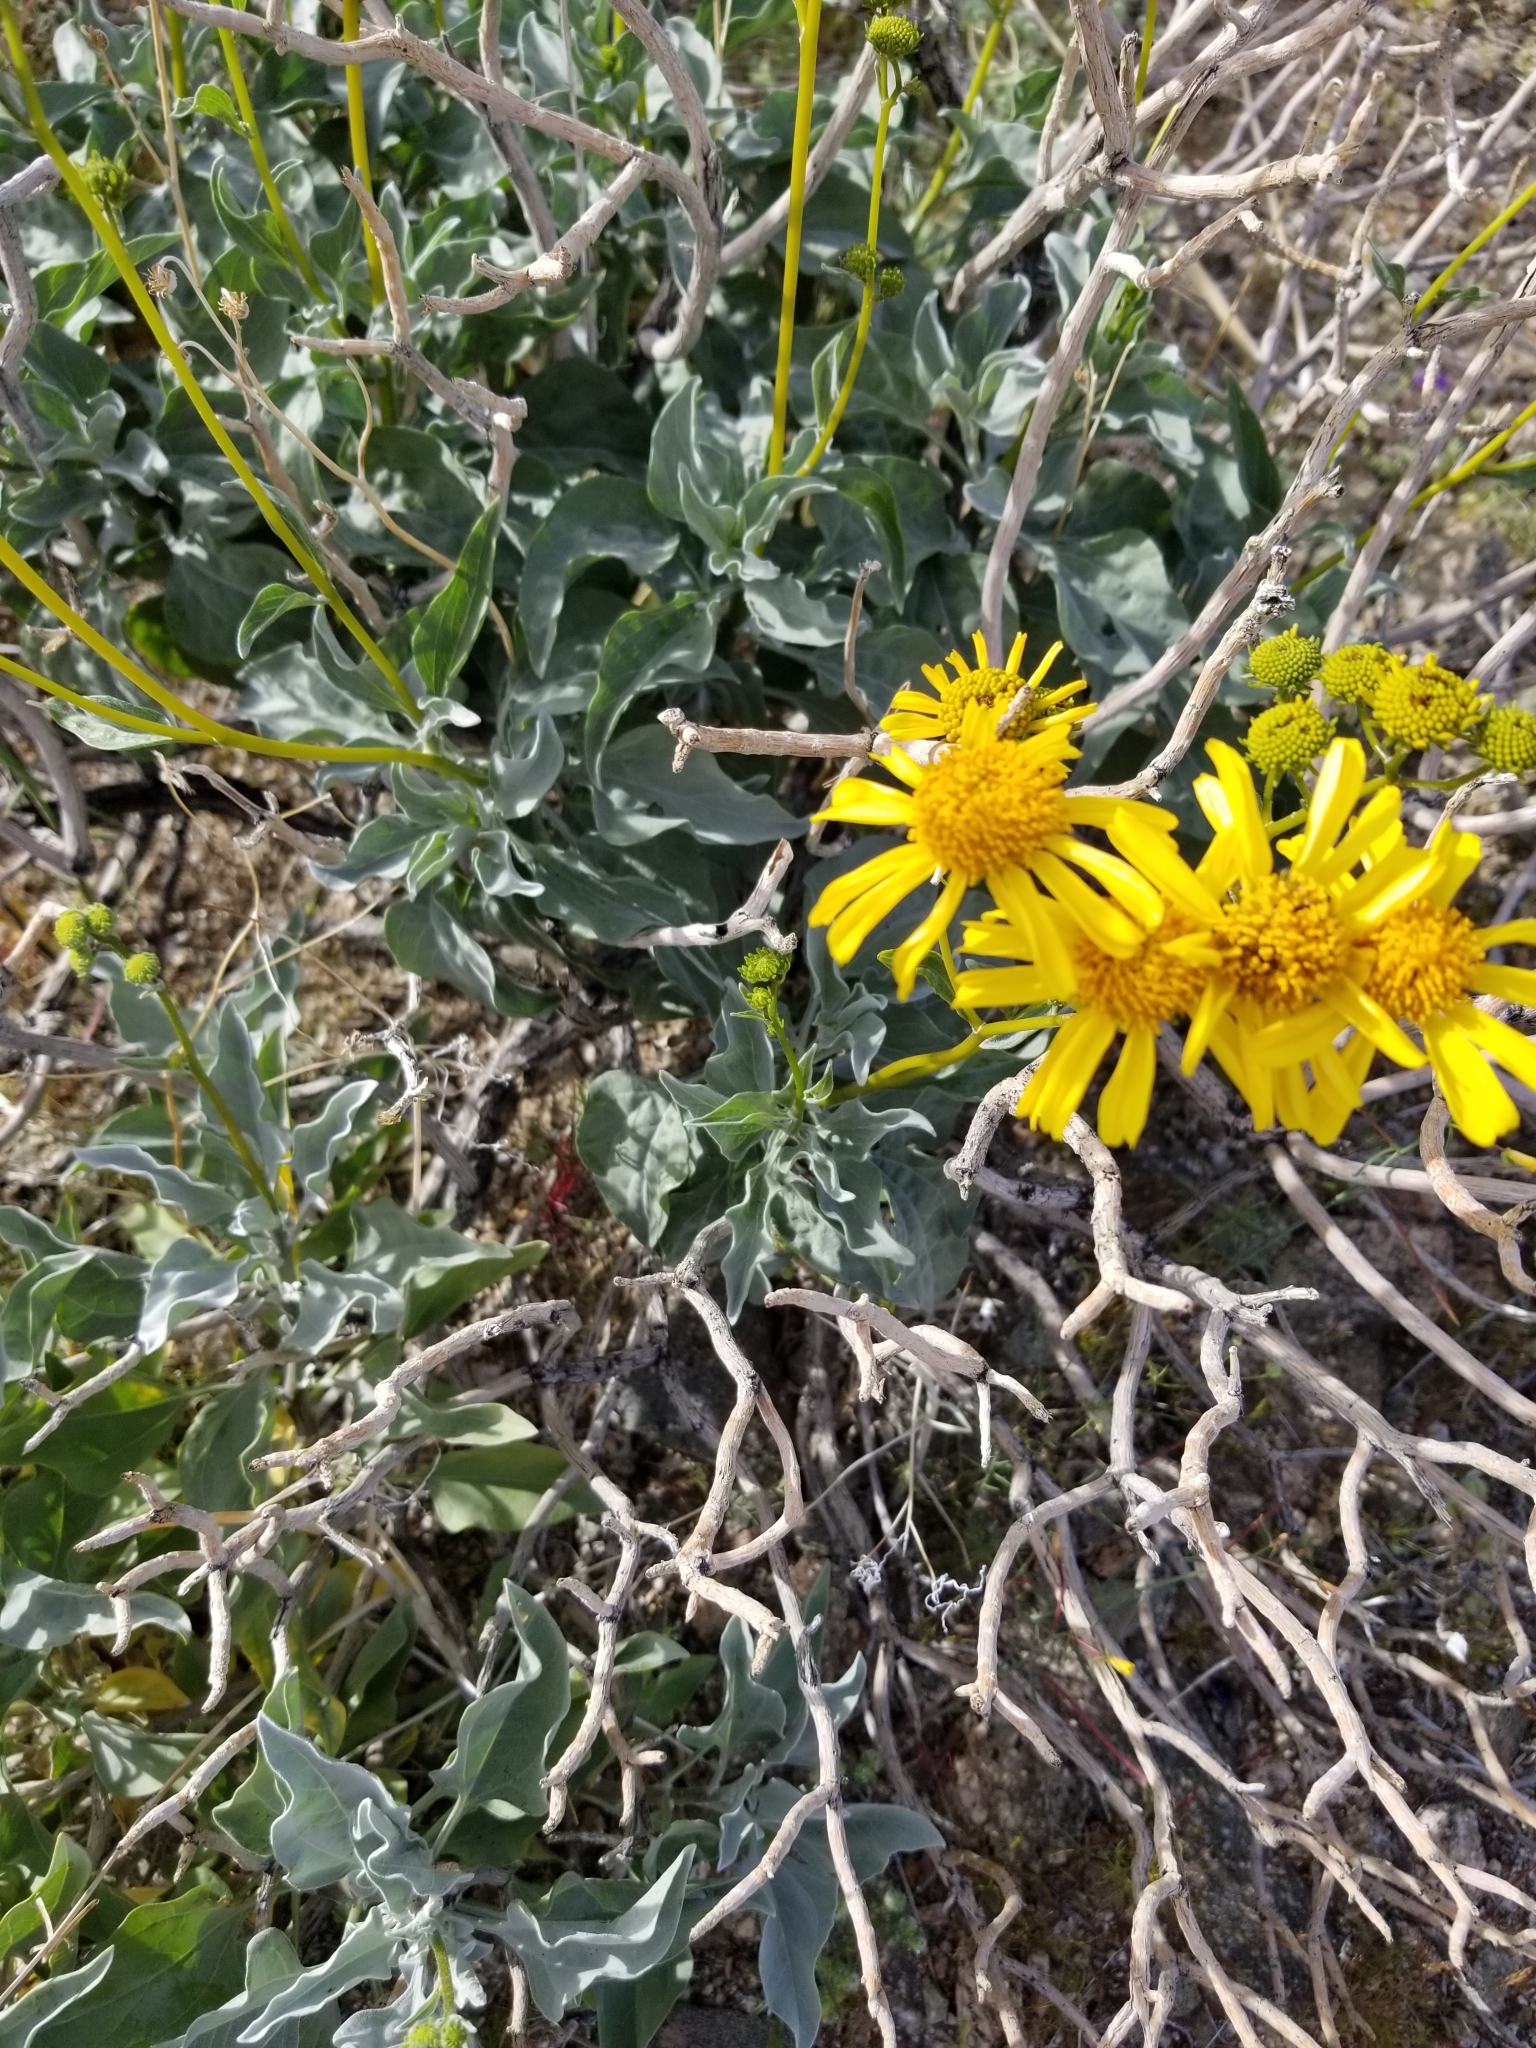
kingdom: Plantae
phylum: Tracheophyta
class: Magnoliopsida
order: Asterales
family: Asteraceae
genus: Encelia
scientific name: Encelia farinosa
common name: Brittlebush
